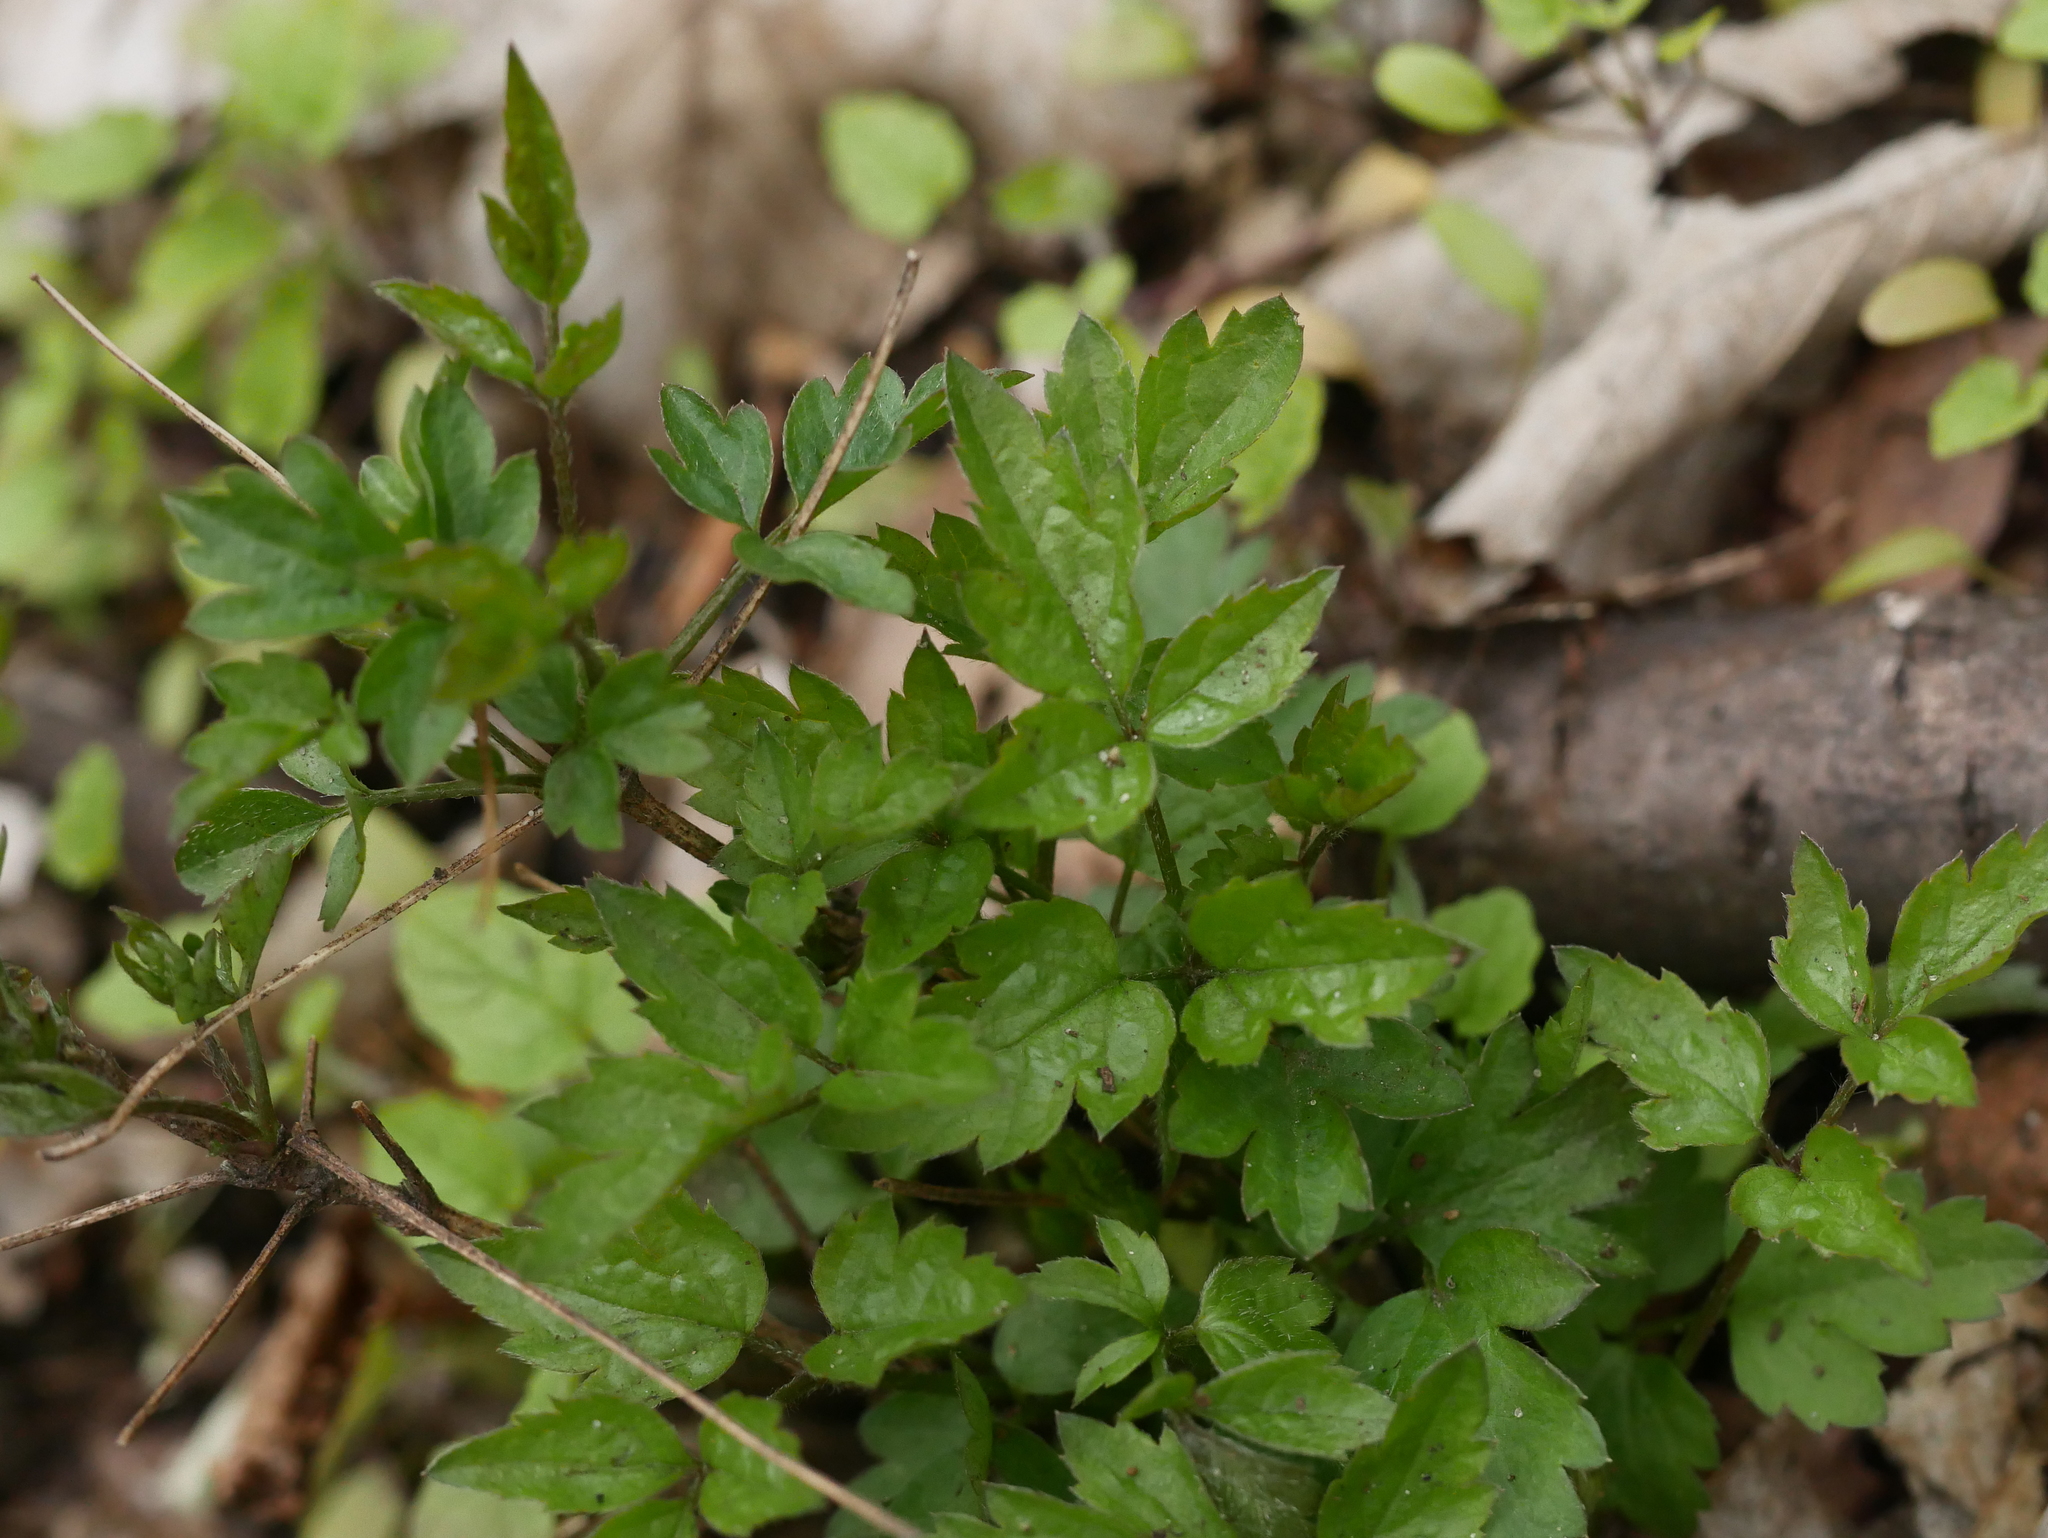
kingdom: Plantae
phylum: Tracheophyta
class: Magnoliopsida
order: Ranunculales
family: Ranunculaceae
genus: Clematis
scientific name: Clematis vitalba
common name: Evergreen clematis
